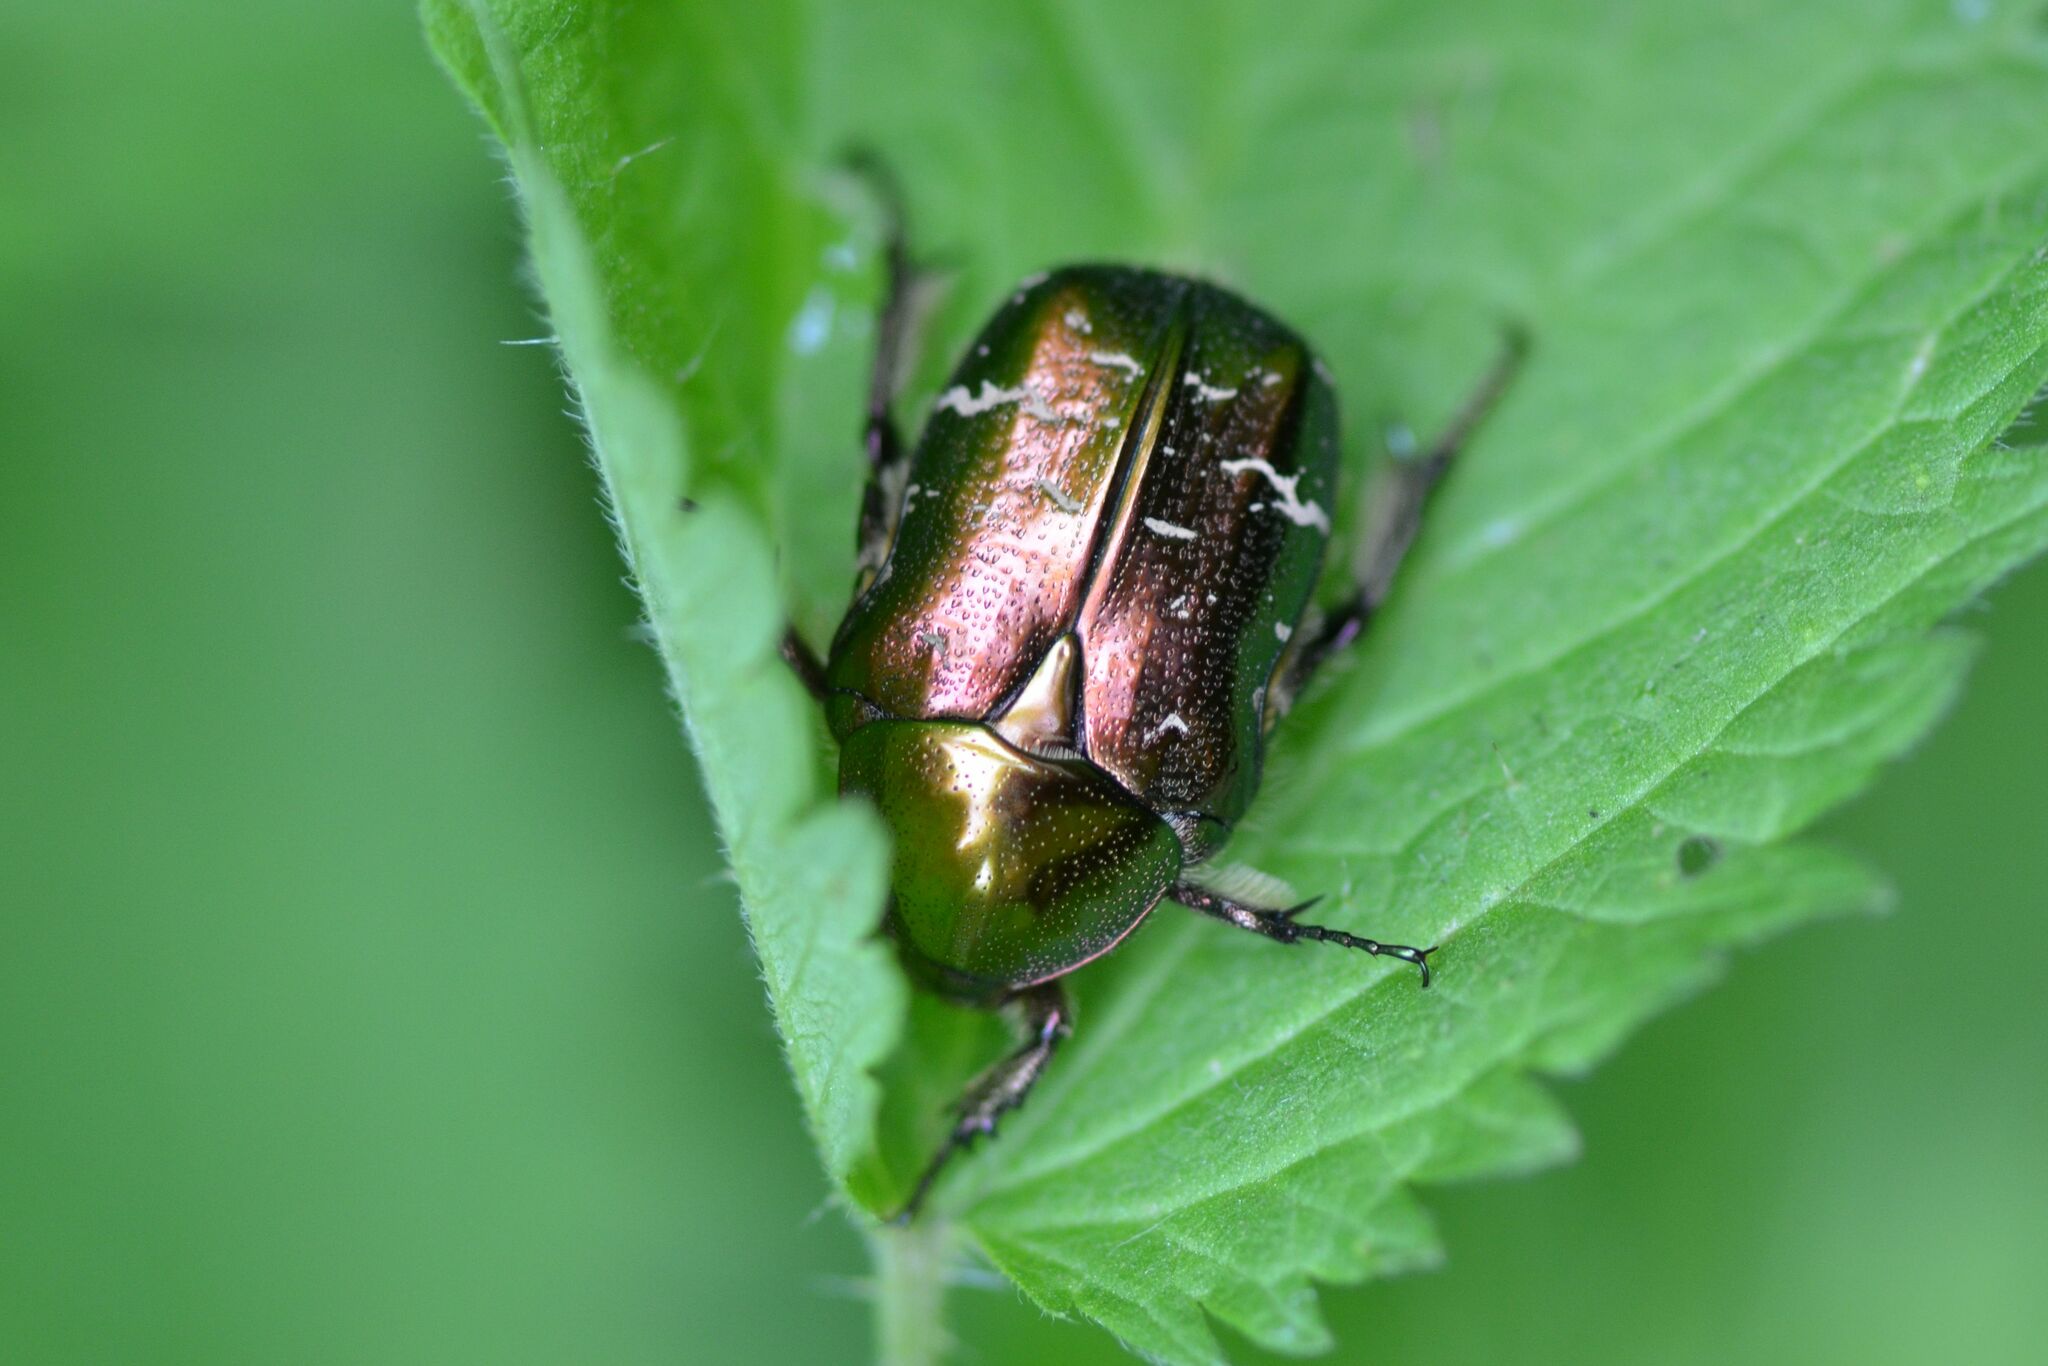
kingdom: Animalia
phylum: Arthropoda
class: Insecta
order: Coleoptera
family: Scarabaeidae
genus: Cetonia
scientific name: Cetonia aurata
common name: Rose chafer
